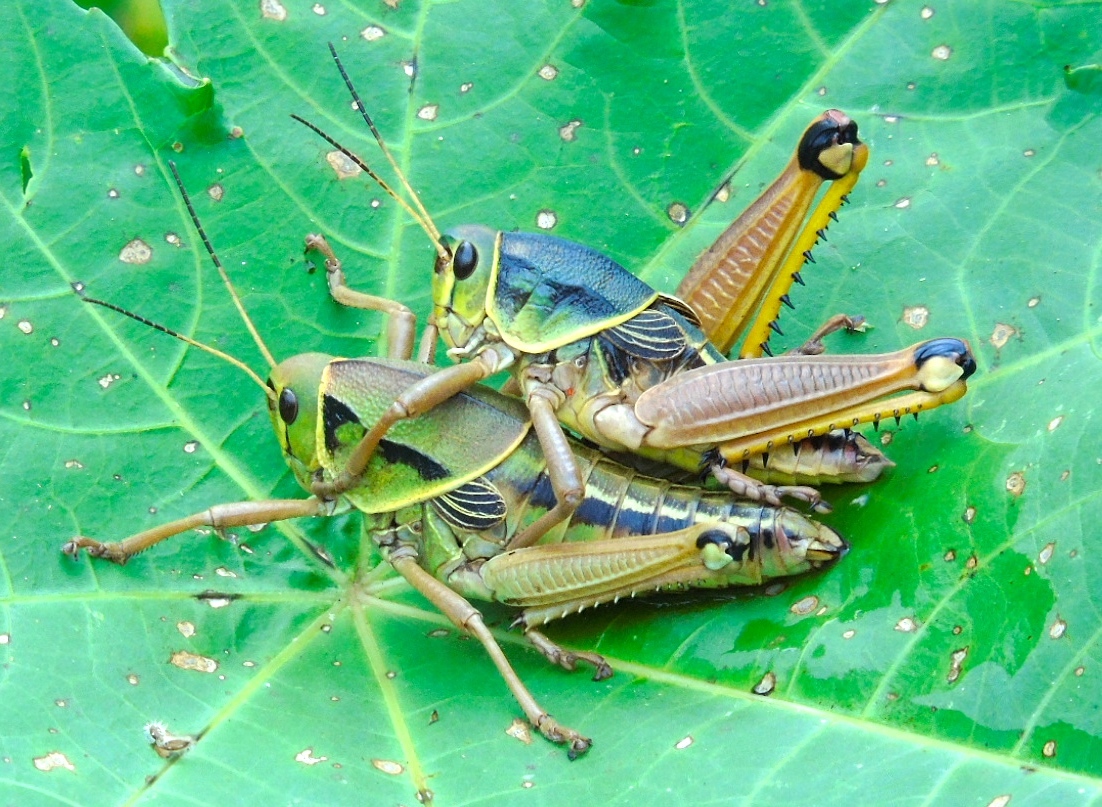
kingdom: Animalia
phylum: Arthropoda
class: Insecta
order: Orthoptera
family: Romaleidae
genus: Brachystola
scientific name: Brachystola behrensii
